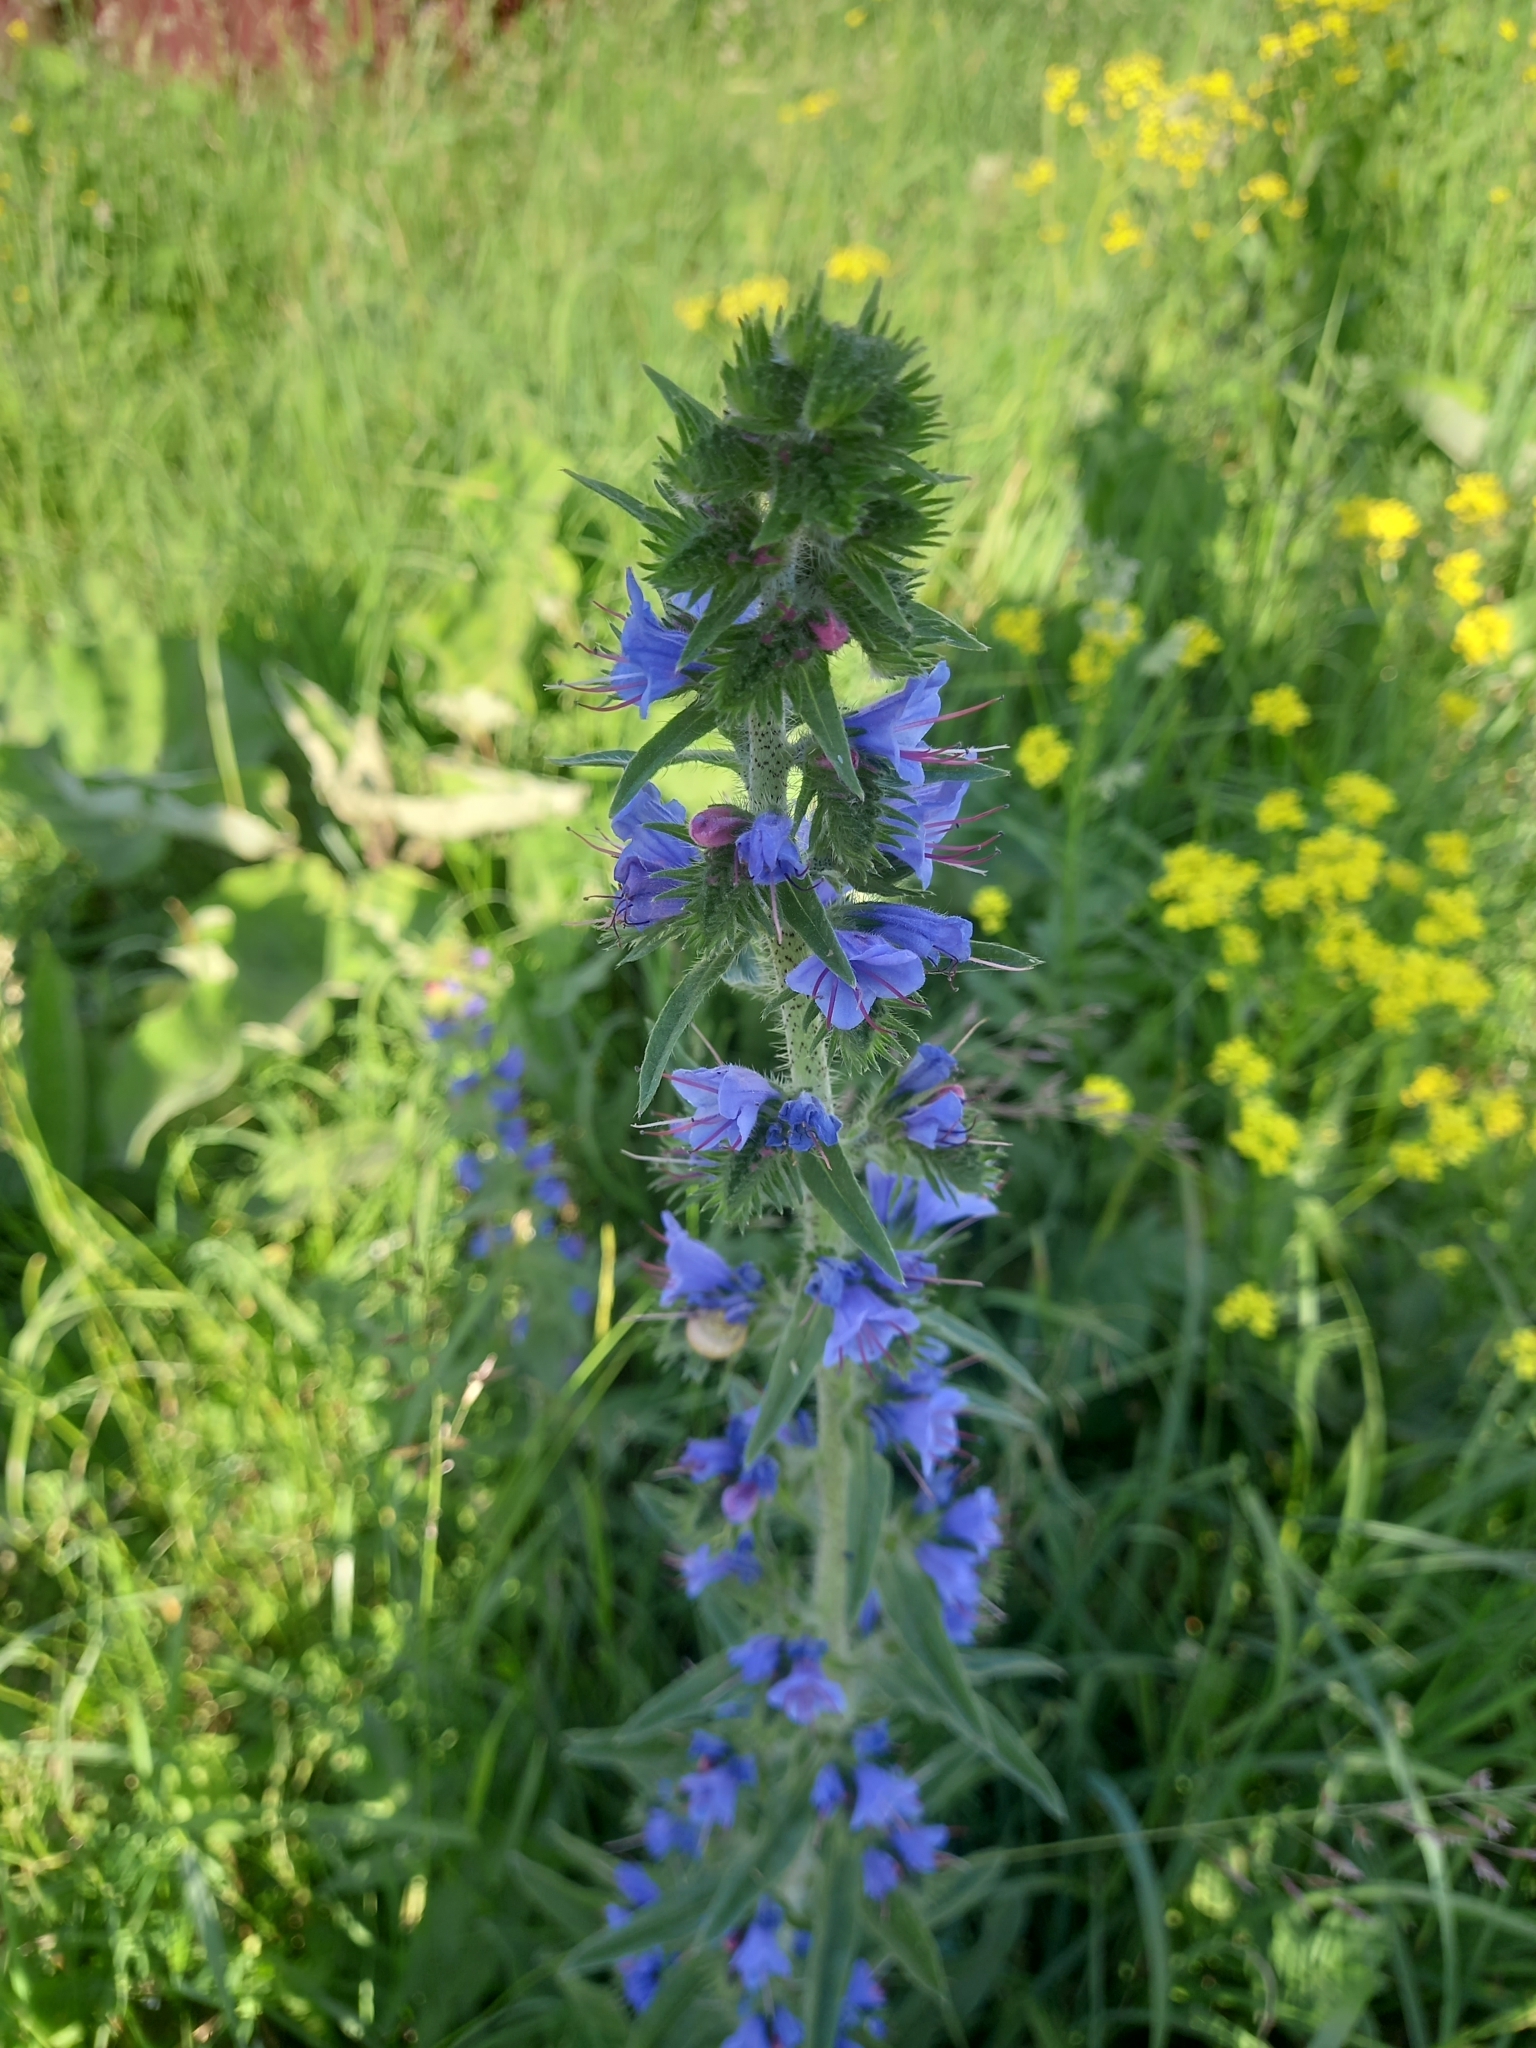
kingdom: Plantae
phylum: Tracheophyta
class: Magnoliopsida
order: Boraginales
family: Boraginaceae
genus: Echium
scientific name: Echium vulgare
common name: Common viper's bugloss
